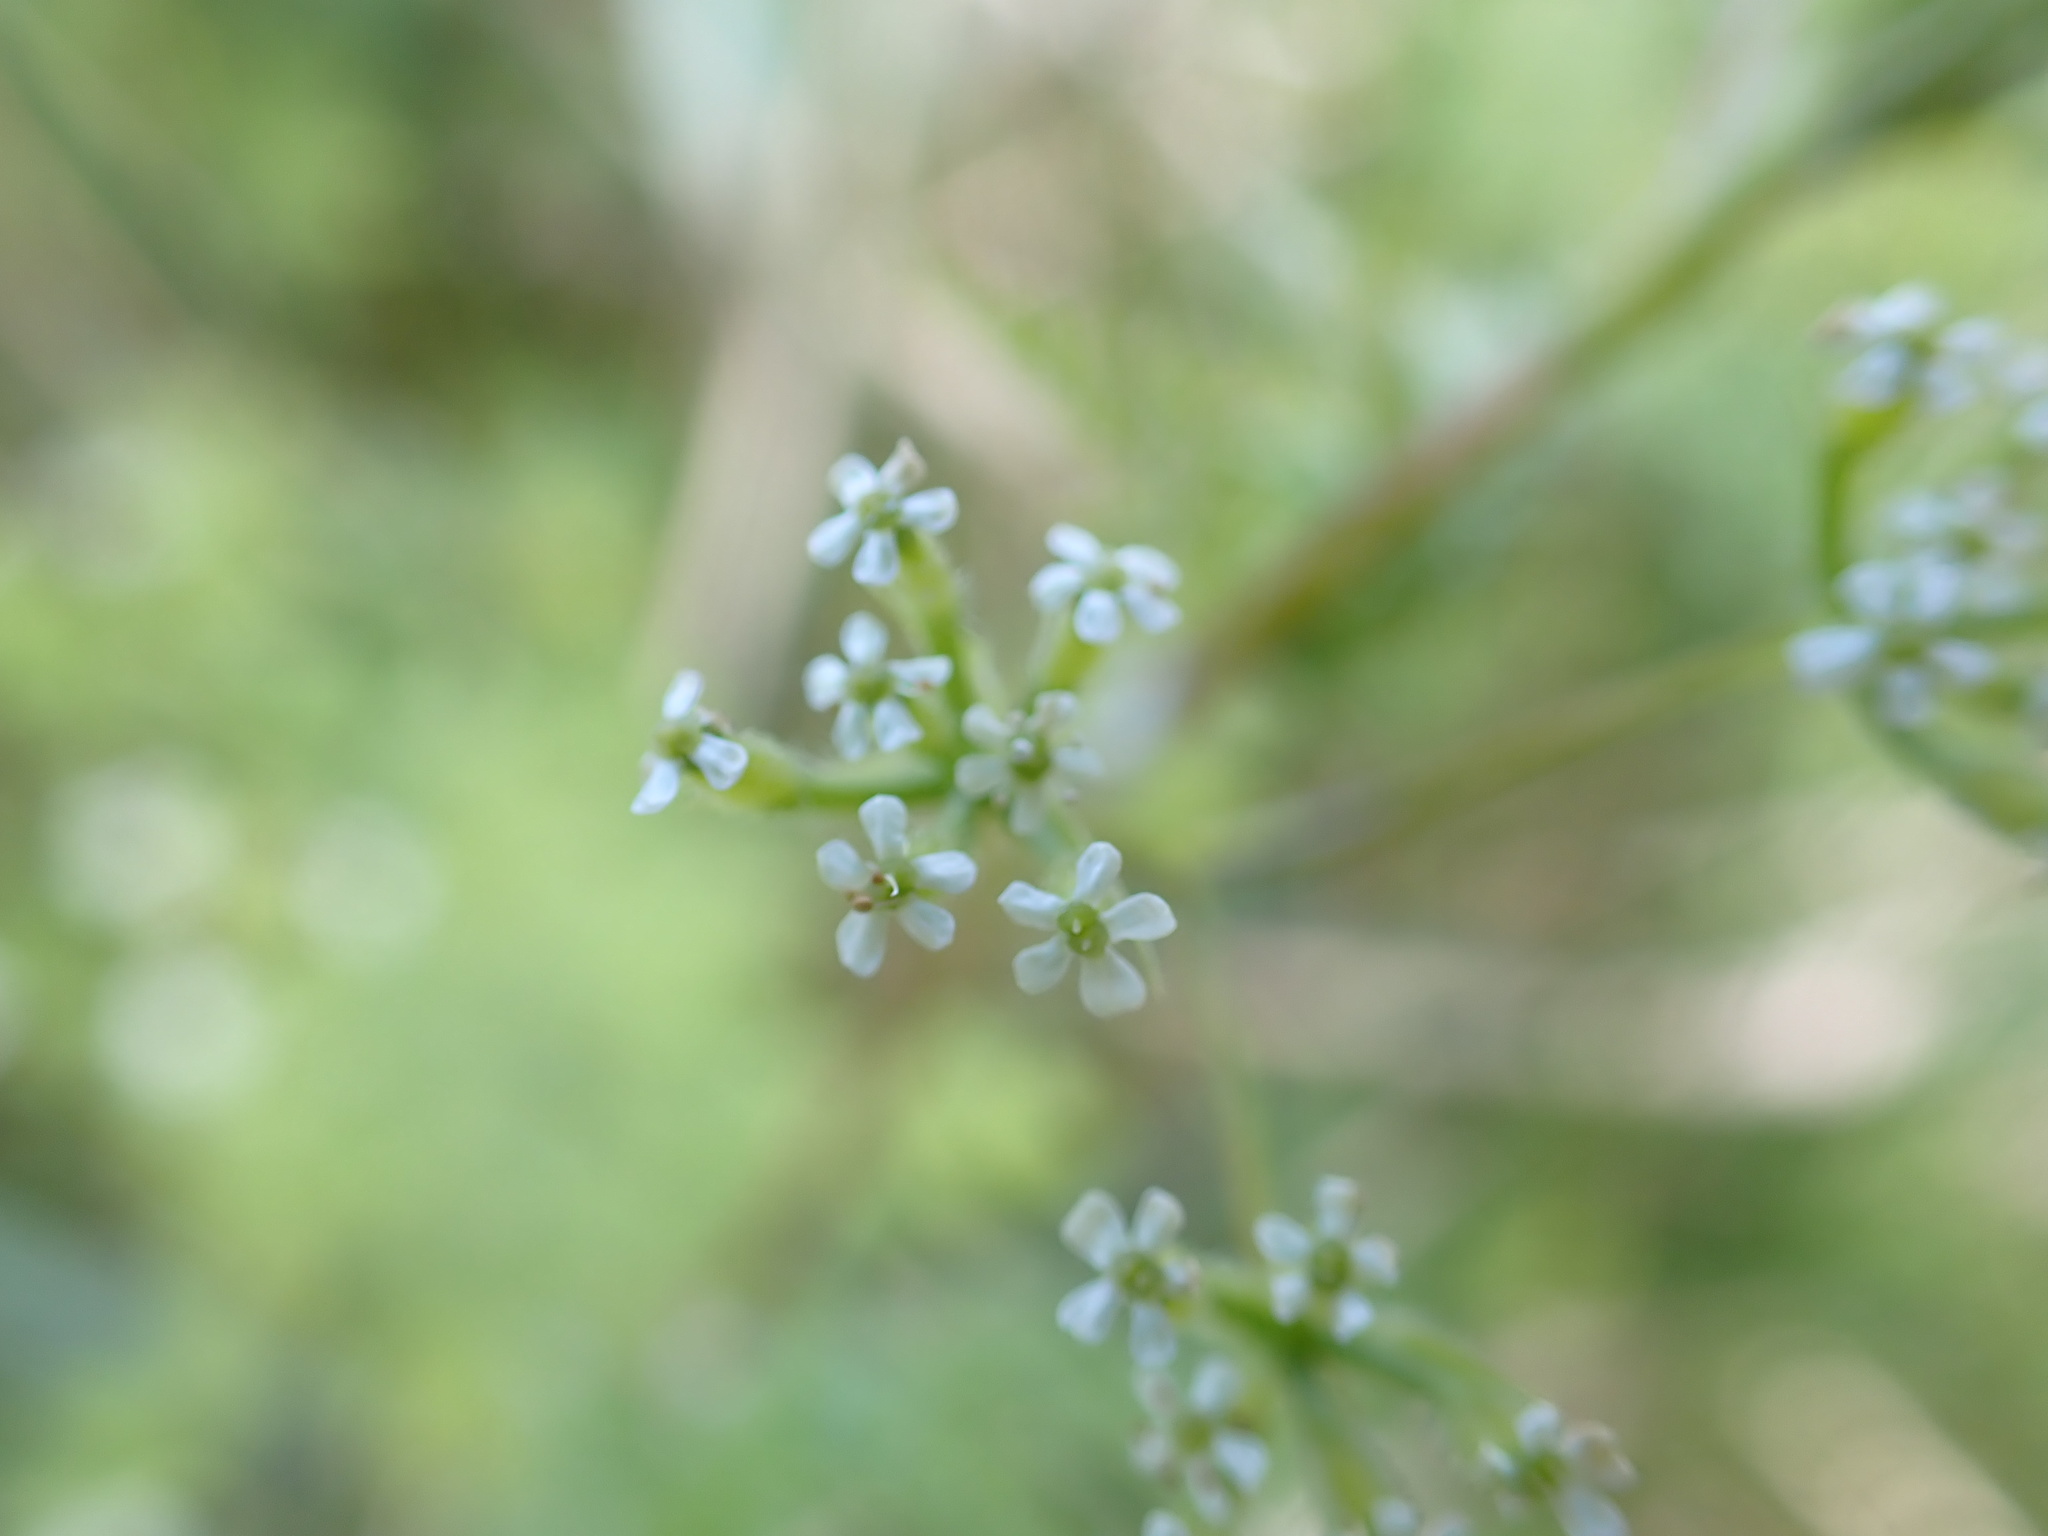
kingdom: Plantae
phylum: Tracheophyta
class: Magnoliopsida
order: Apiales
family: Apiaceae
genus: Anthriscus
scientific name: Anthriscus caucalis
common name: Bur chervil
